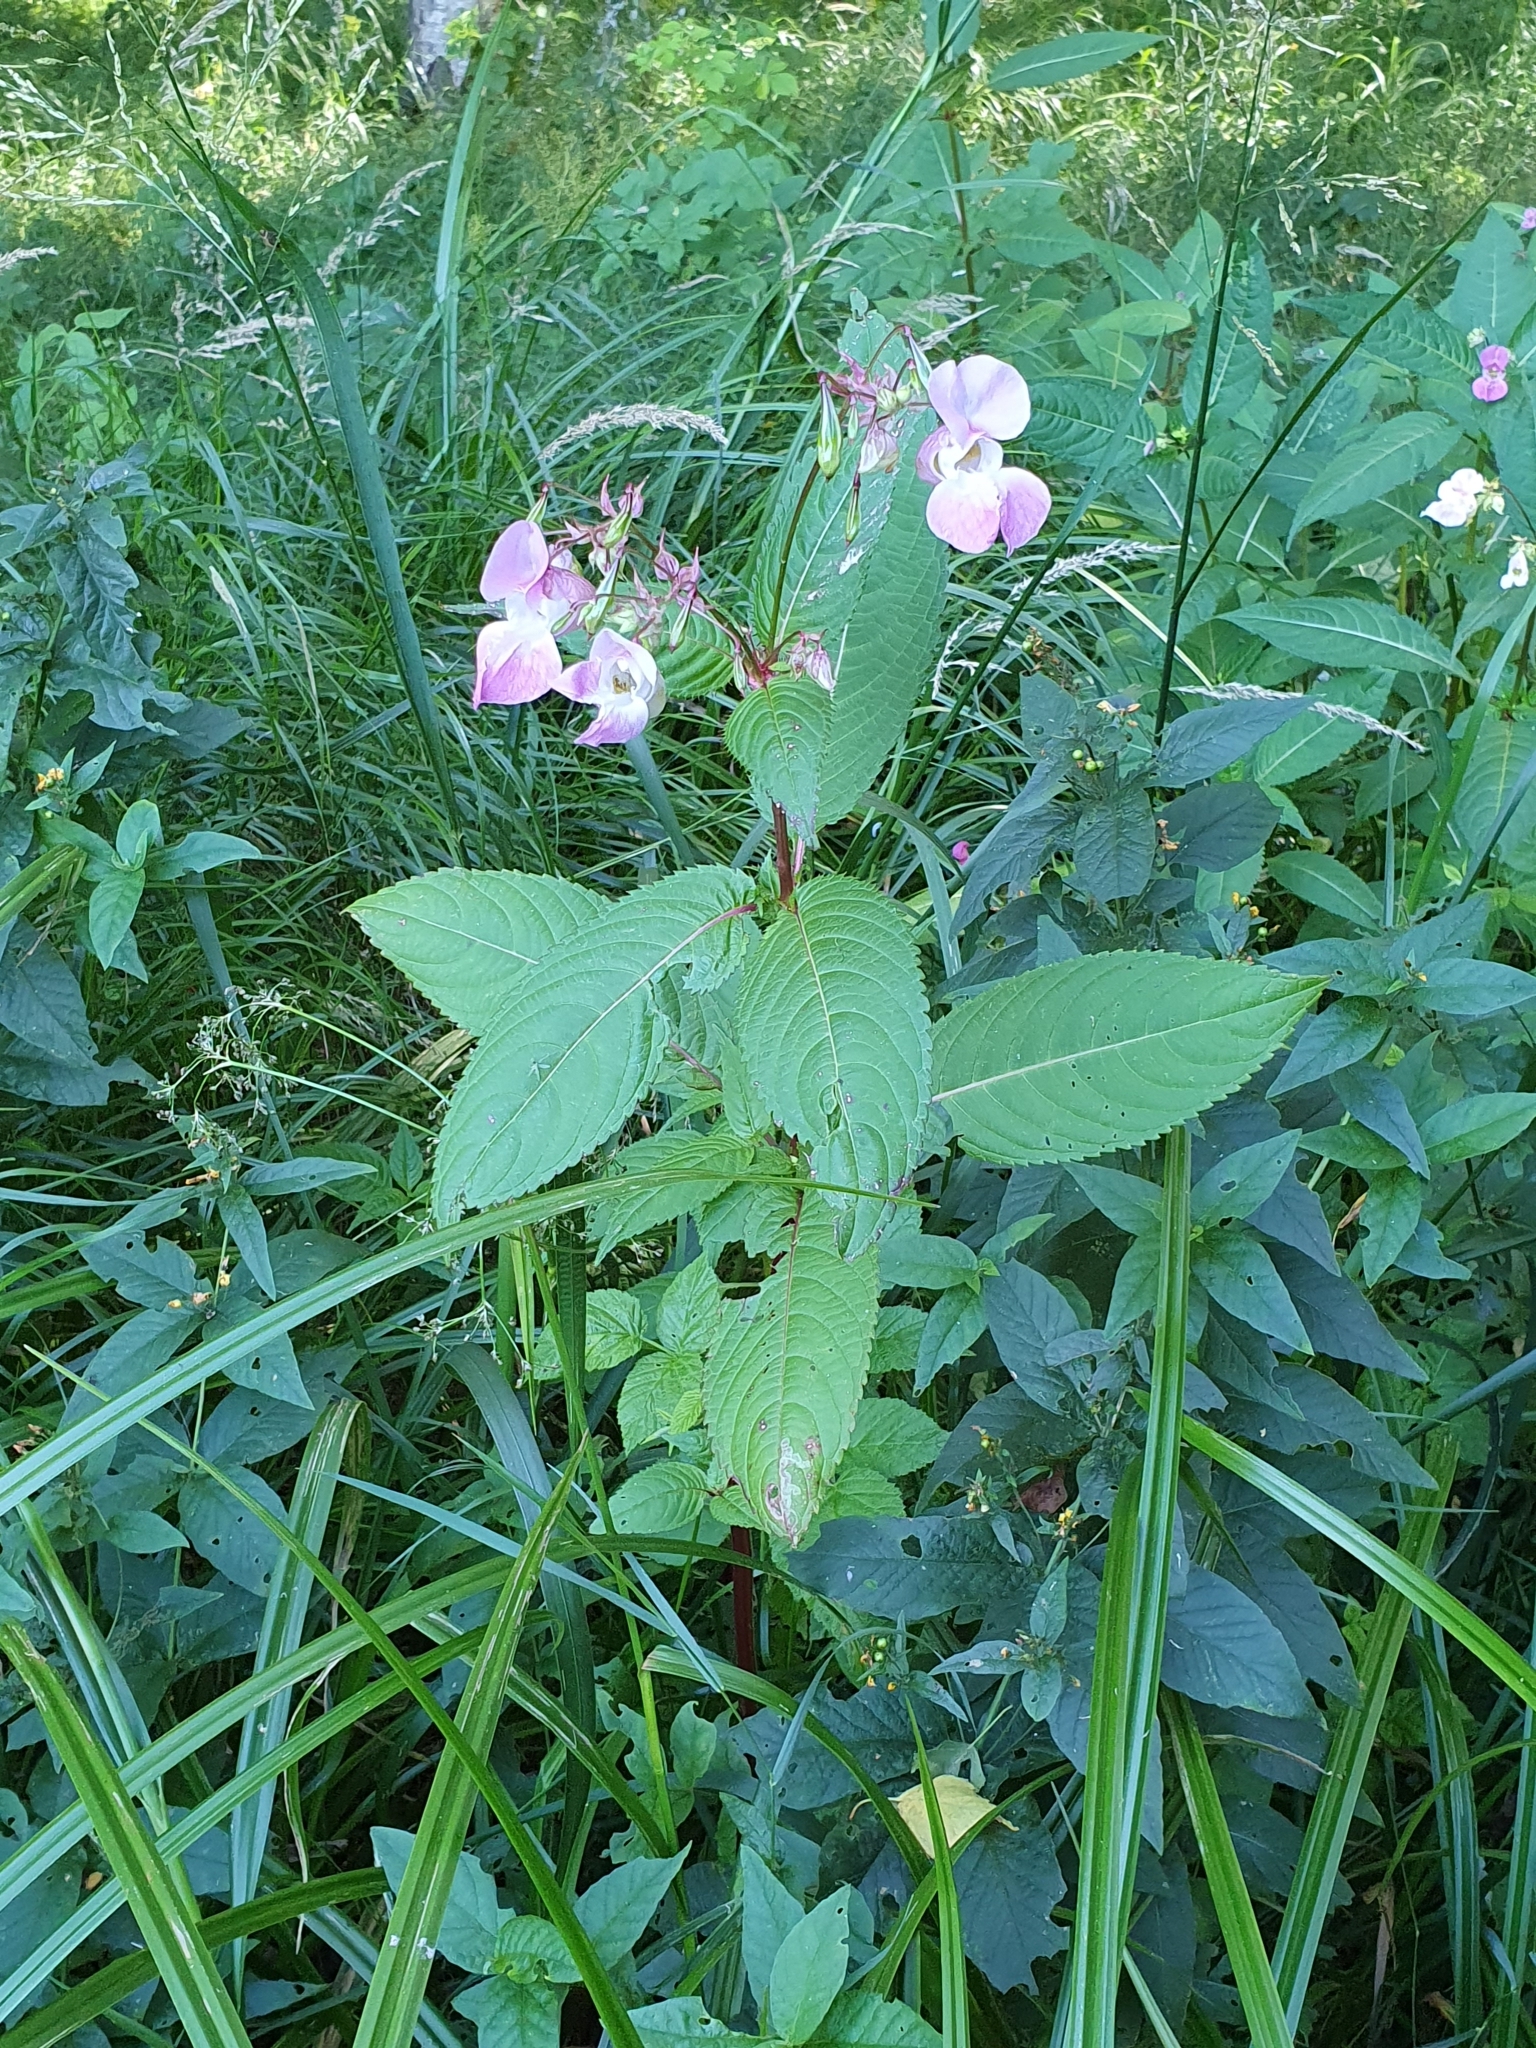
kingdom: Plantae
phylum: Tracheophyta
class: Magnoliopsida
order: Ericales
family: Balsaminaceae
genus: Impatiens
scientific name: Impatiens glandulifera
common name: Himalayan balsam
